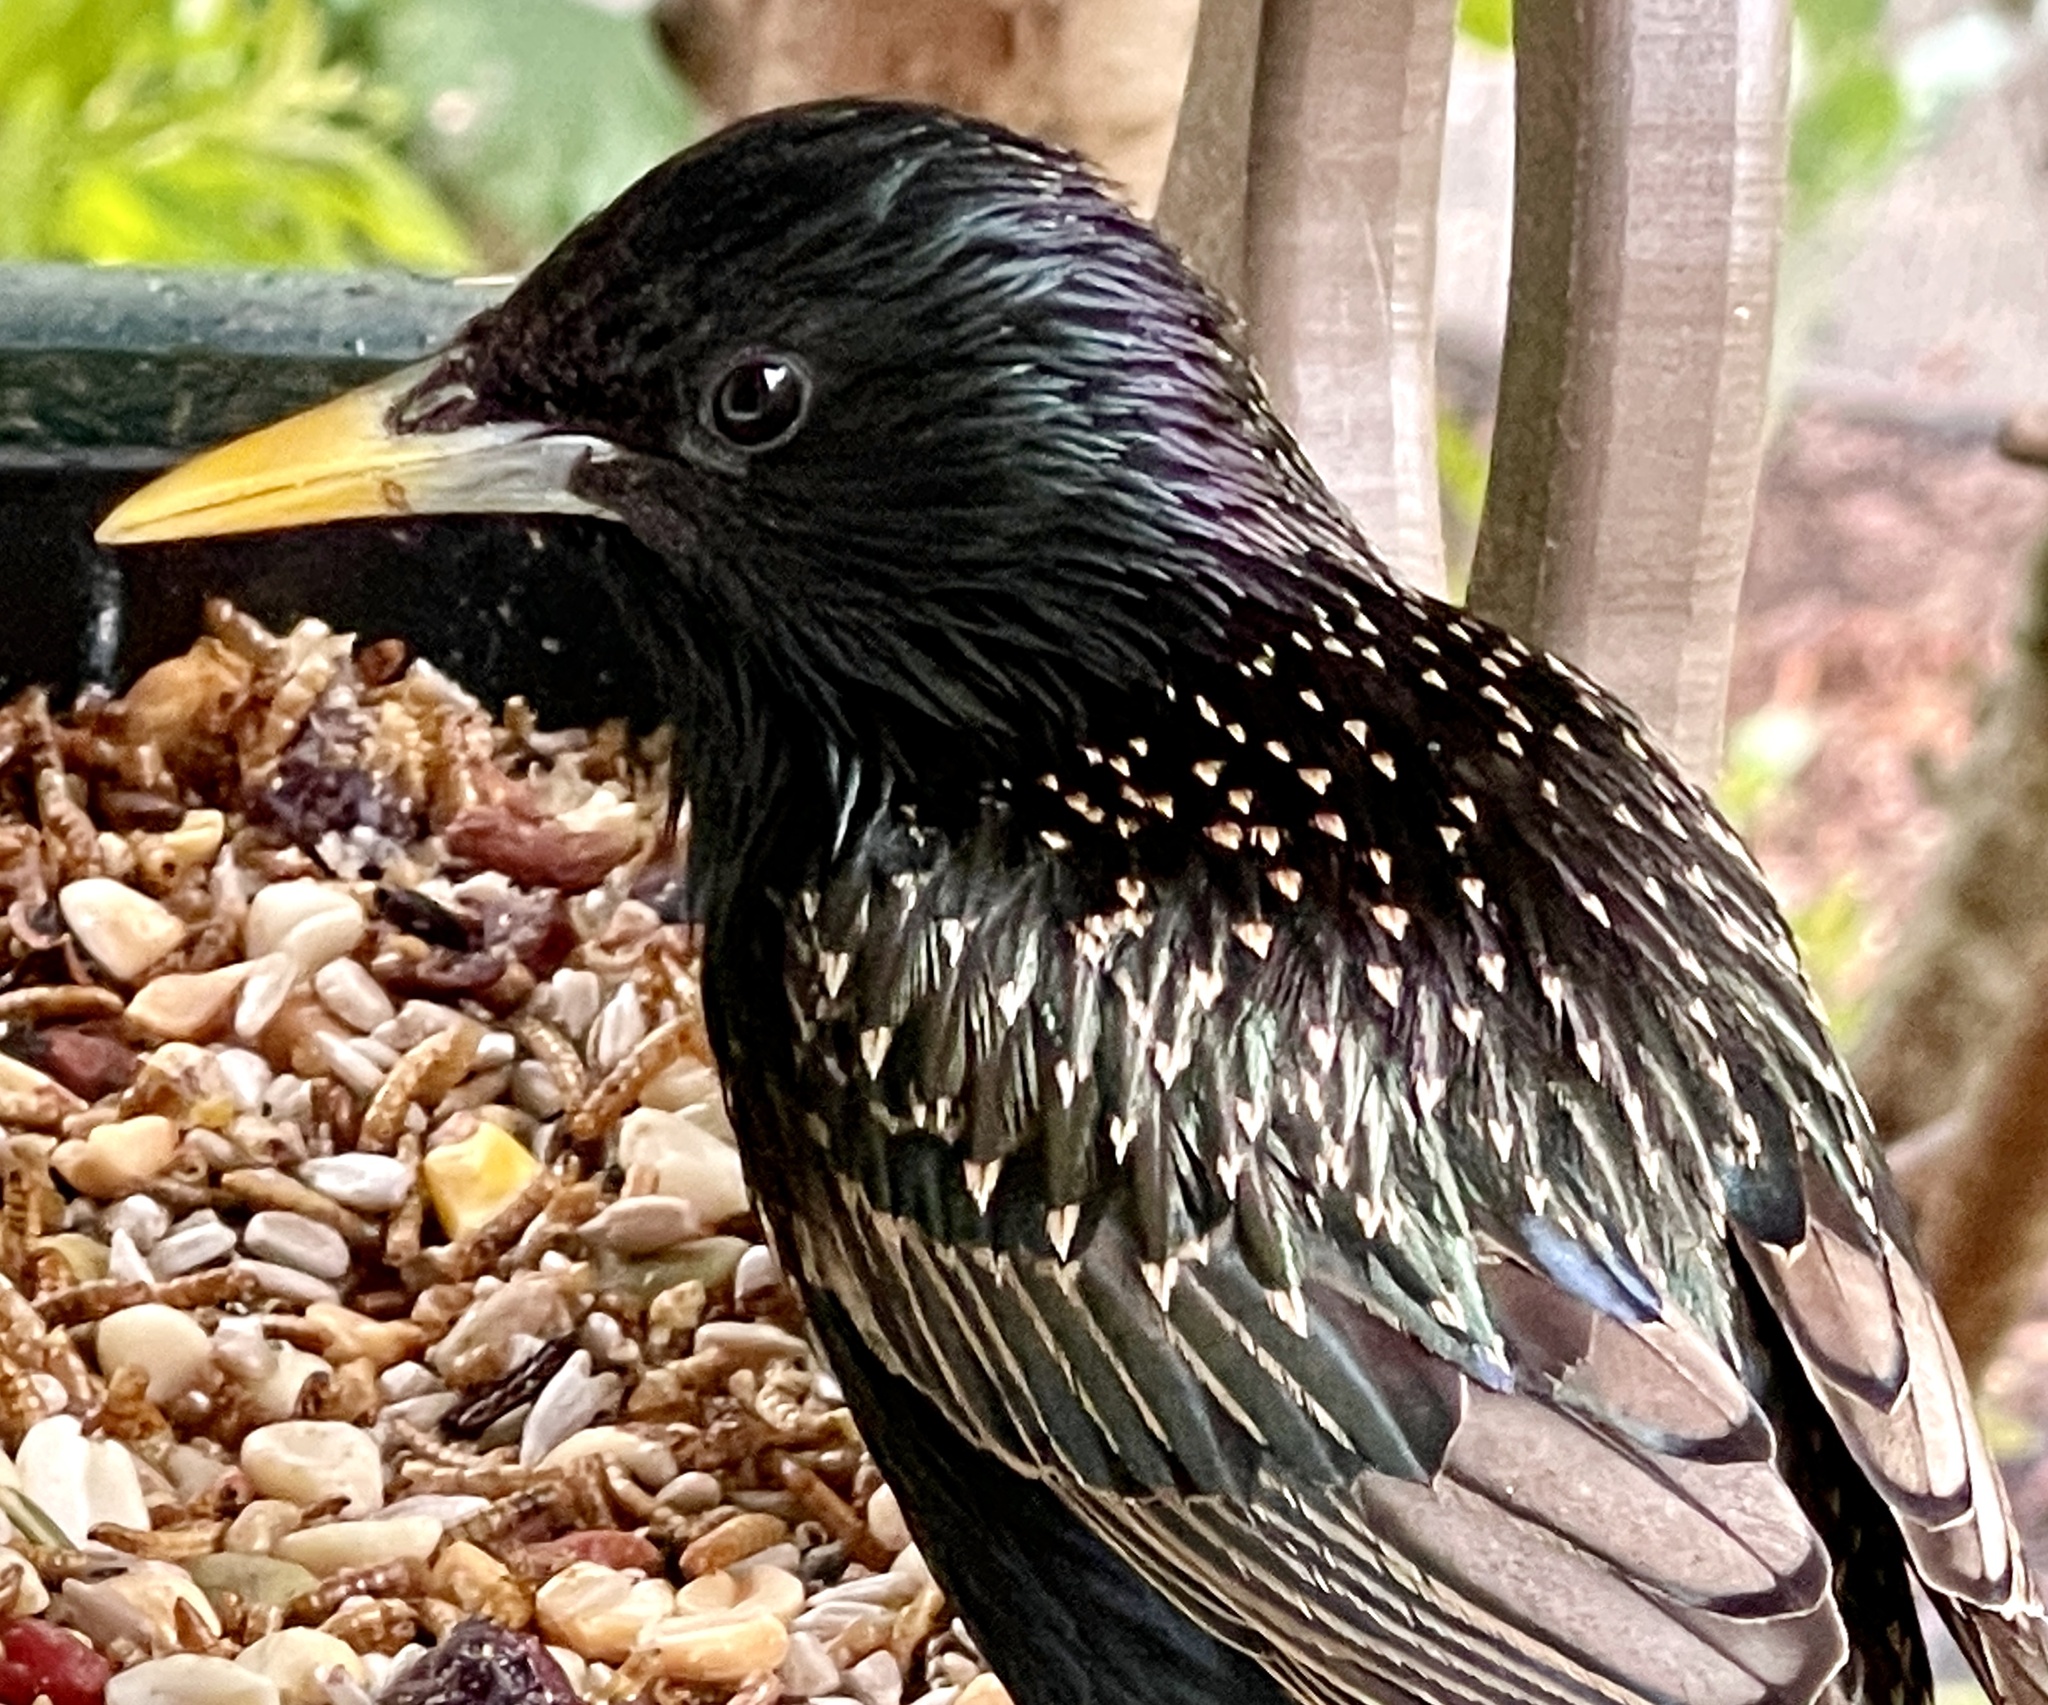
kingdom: Animalia
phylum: Chordata
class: Aves
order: Passeriformes
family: Sturnidae
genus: Sturnus
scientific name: Sturnus vulgaris
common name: Common starling
